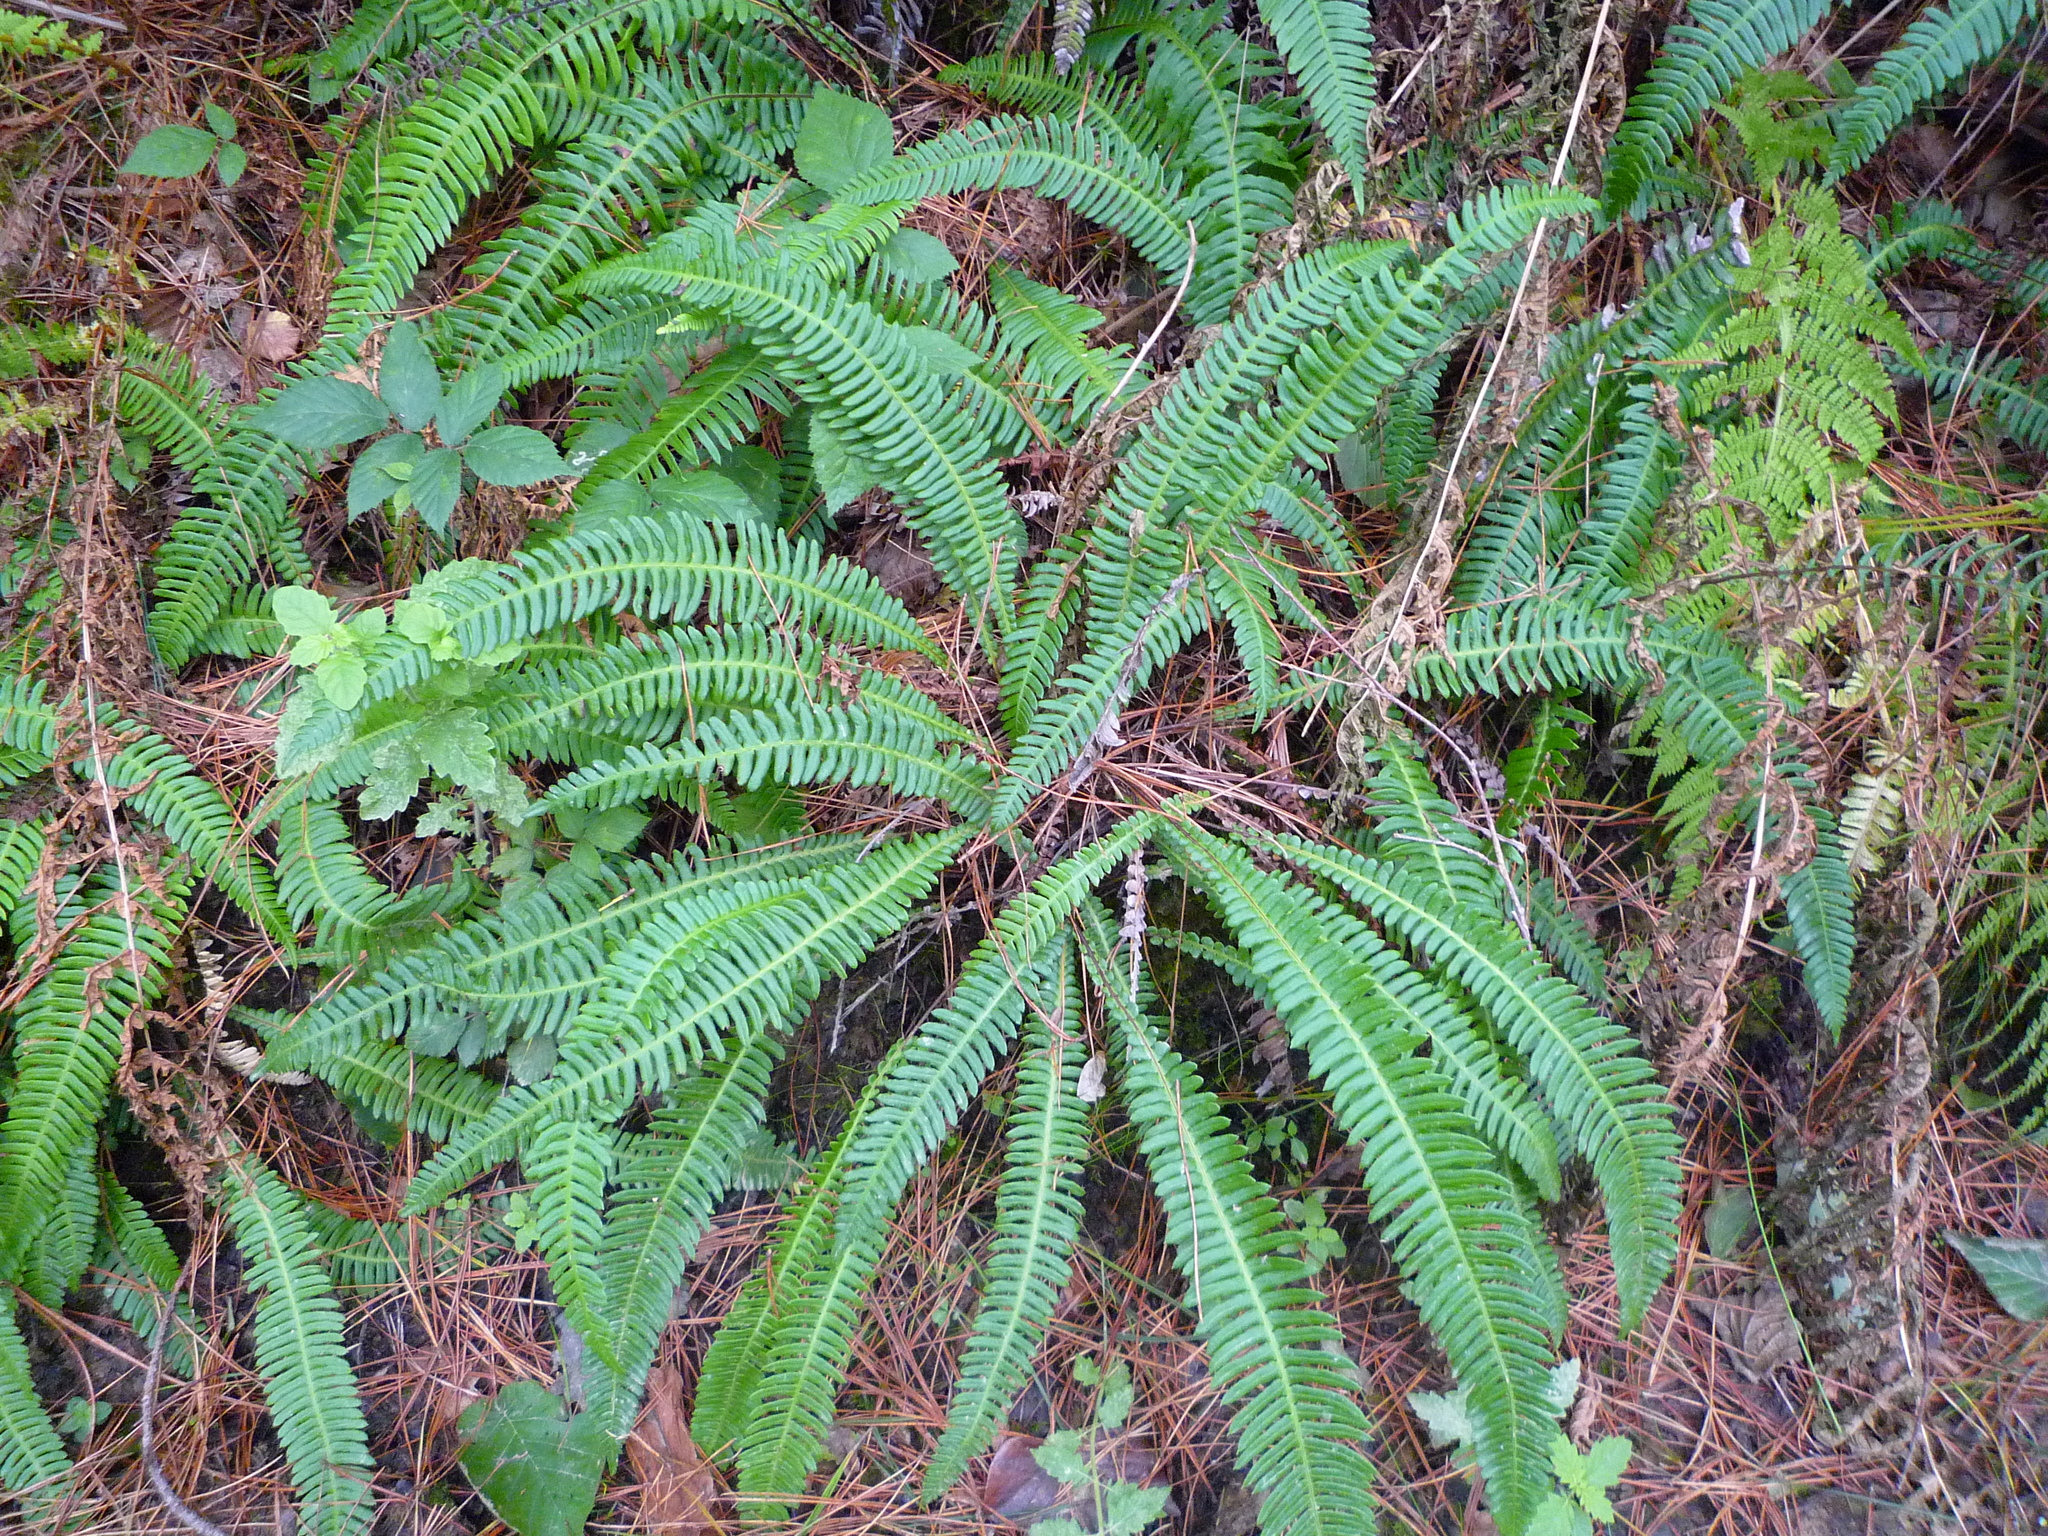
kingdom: Plantae
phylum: Tracheophyta
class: Polypodiopsida
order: Polypodiales
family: Blechnaceae
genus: Struthiopteris
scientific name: Struthiopteris spicant
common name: Deer fern
